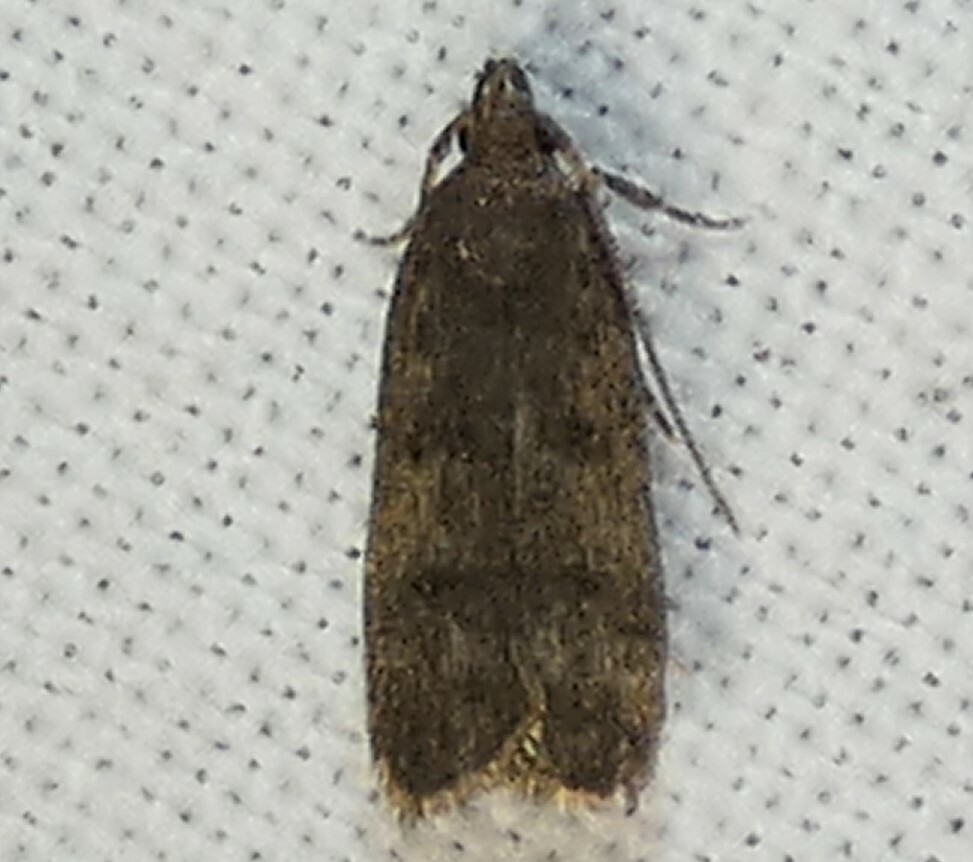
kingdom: Animalia
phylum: Arthropoda
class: Insecta
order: Lepidoptera
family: Autostichidae
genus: Glyphidocera
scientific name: Glyphidocera juniperella
